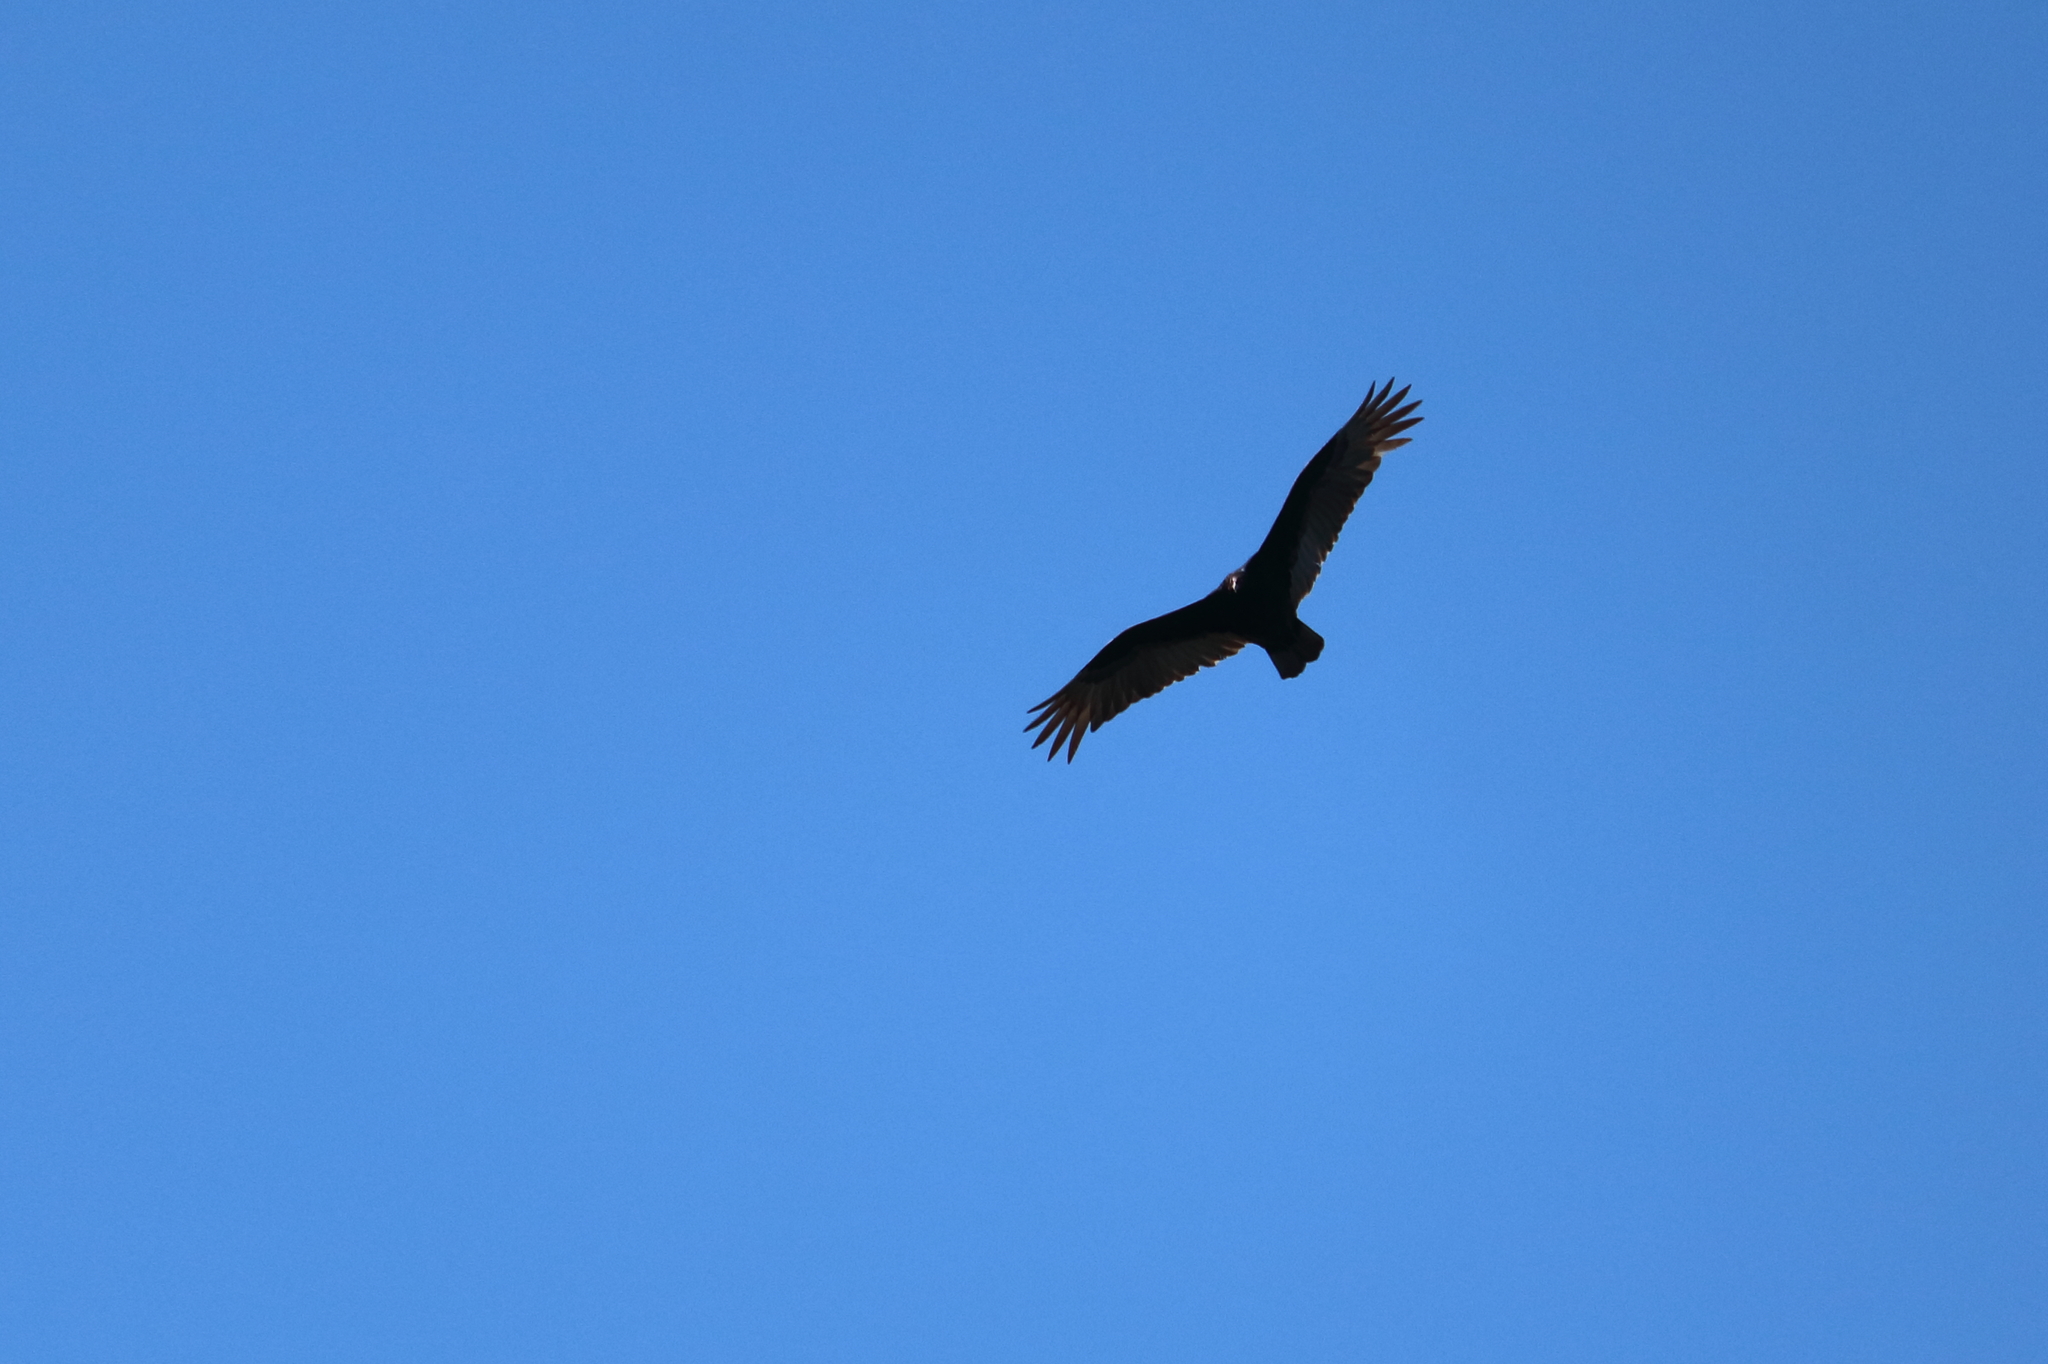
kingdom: Animalia
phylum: Chordata
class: Aves
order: Accipitriformes
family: Cathartidae
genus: Cathartes
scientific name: Cathartes aura
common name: Turkey vulture
